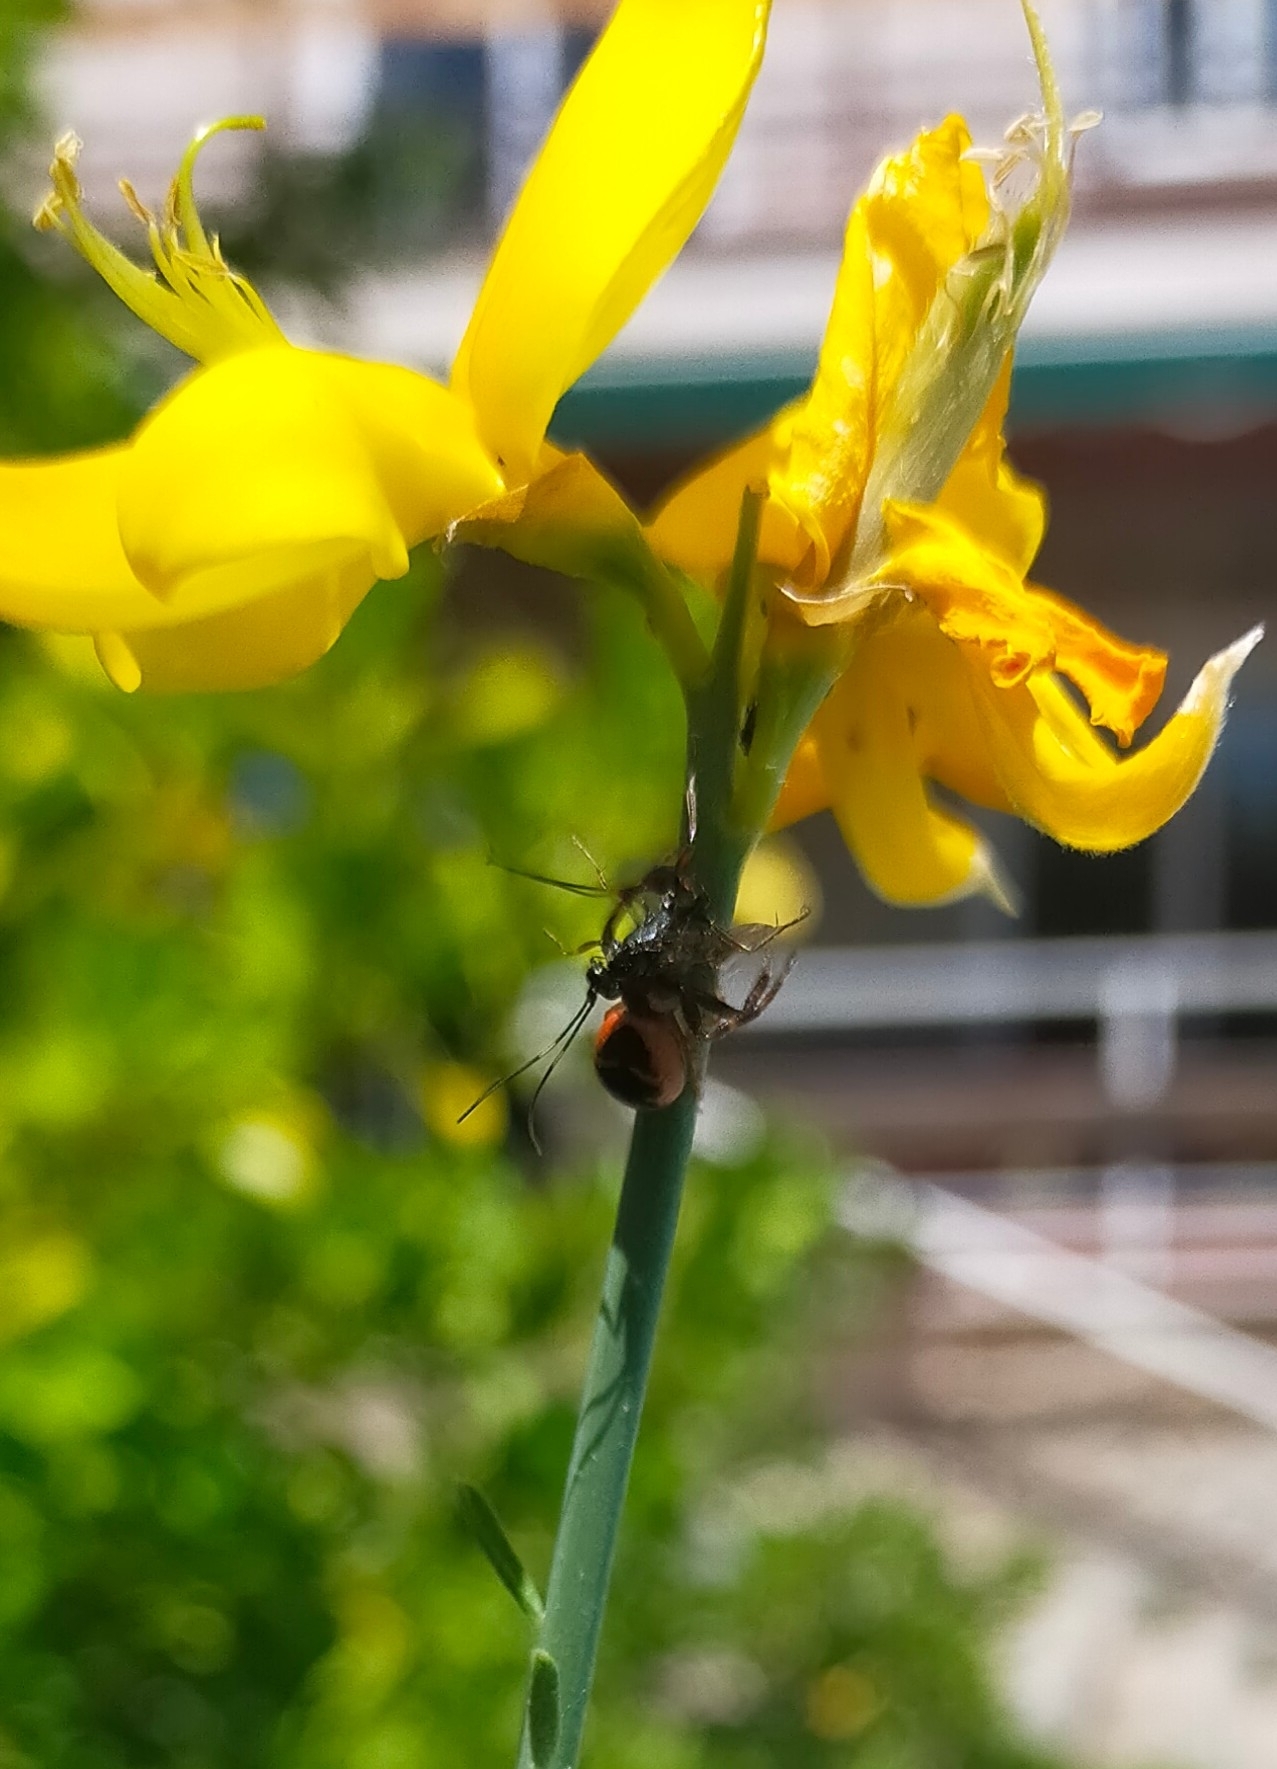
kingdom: Animalia
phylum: Arthropoda
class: Arachnida
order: Araneae
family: Thomisidae
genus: Synema
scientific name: Synema globosum
